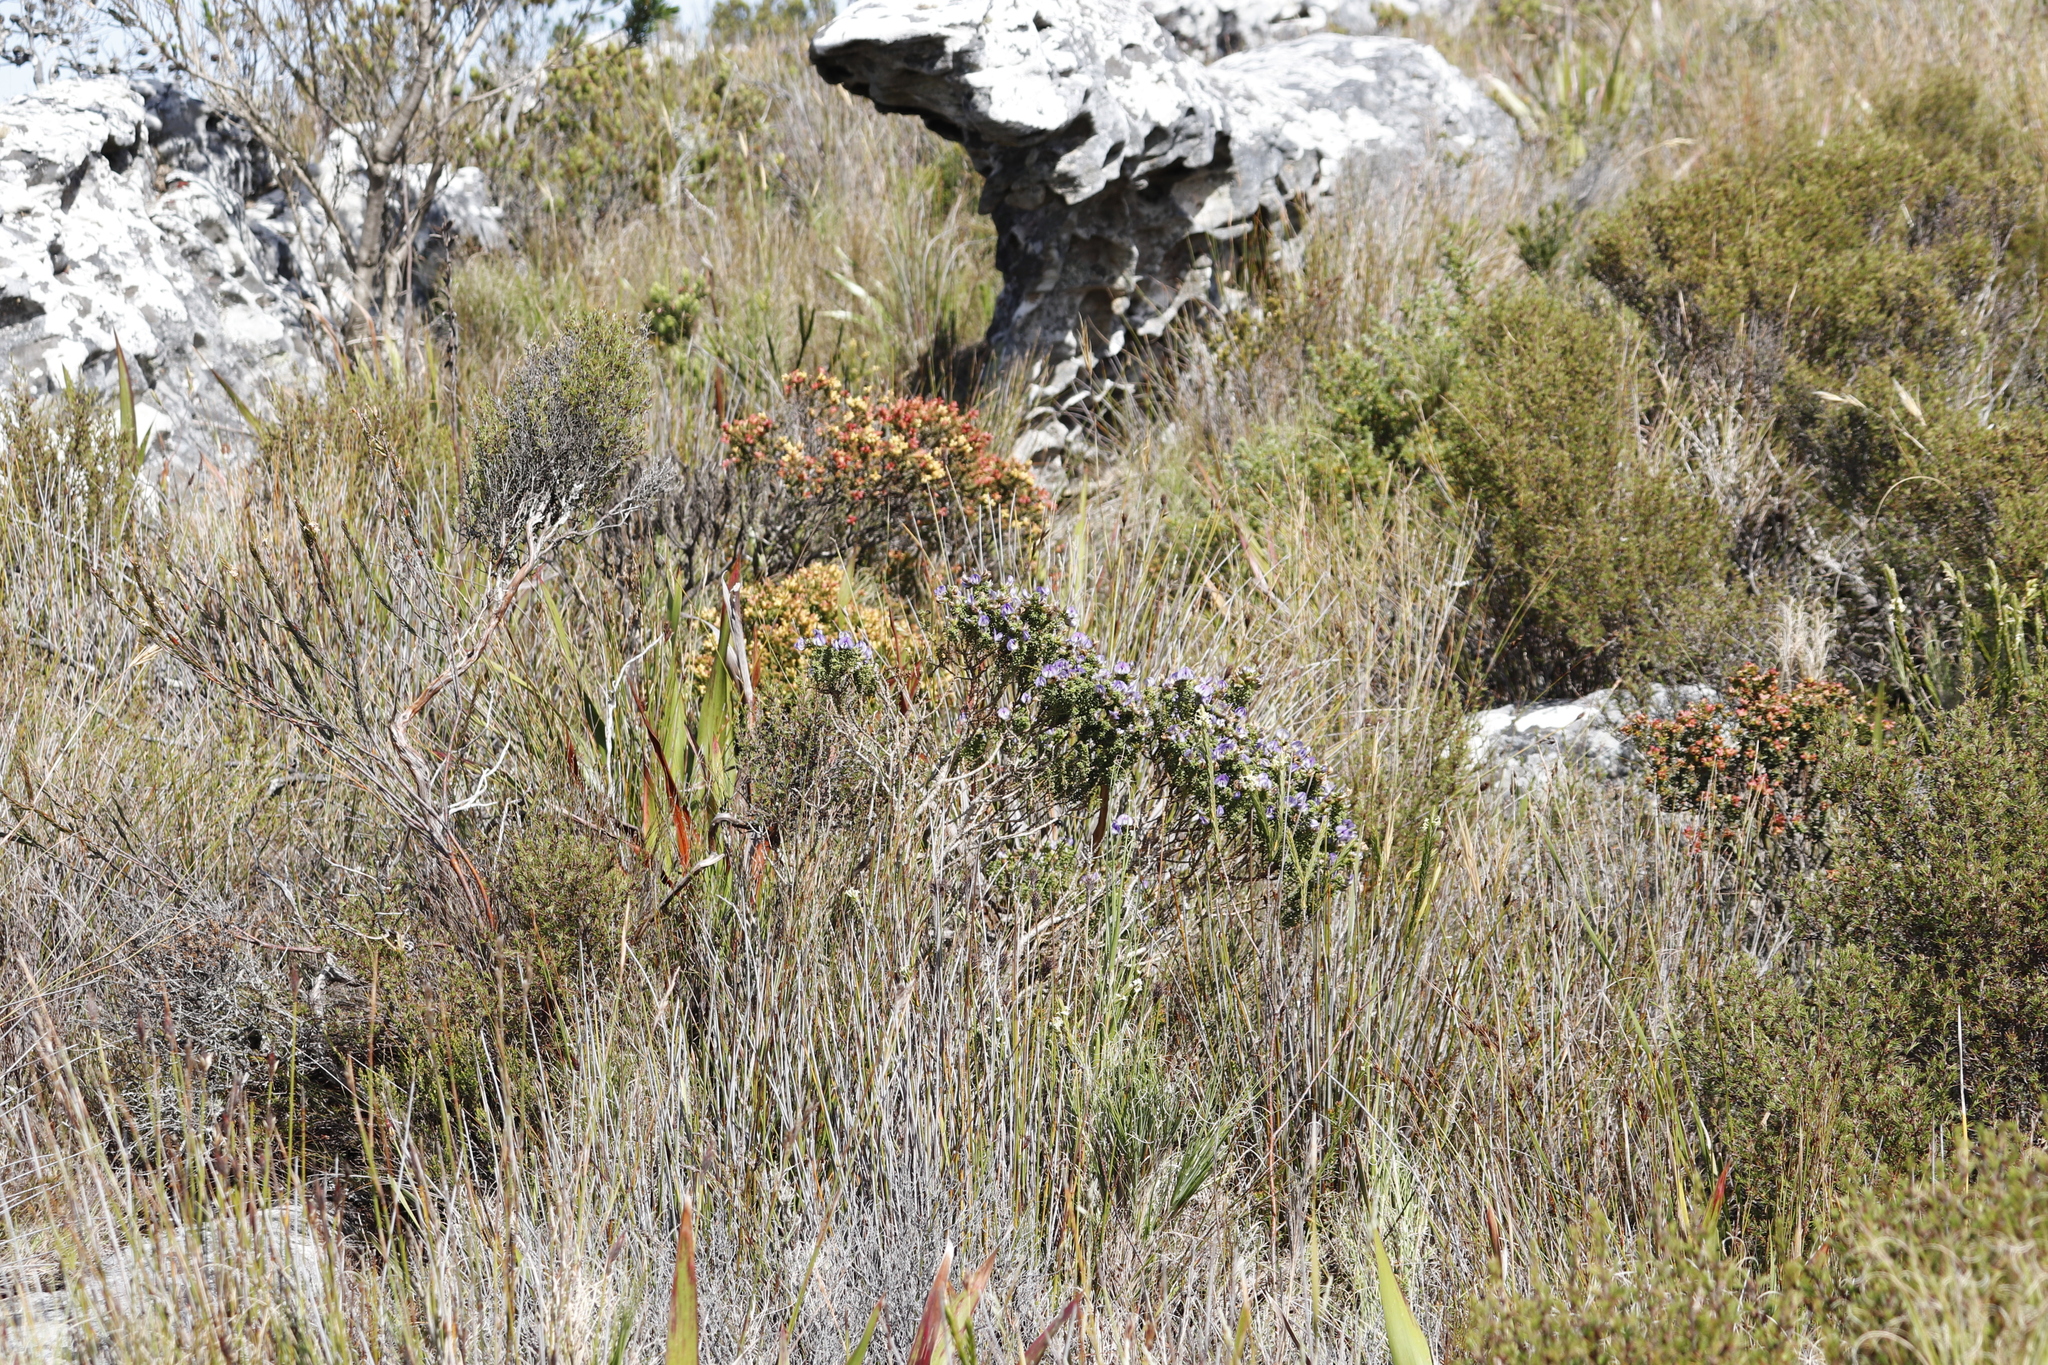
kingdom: Plantae
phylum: Tracheophyta
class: Magnoliopsida
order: Myrtales
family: Penaeaceae
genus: Penaea
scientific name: Penaea mucronata
